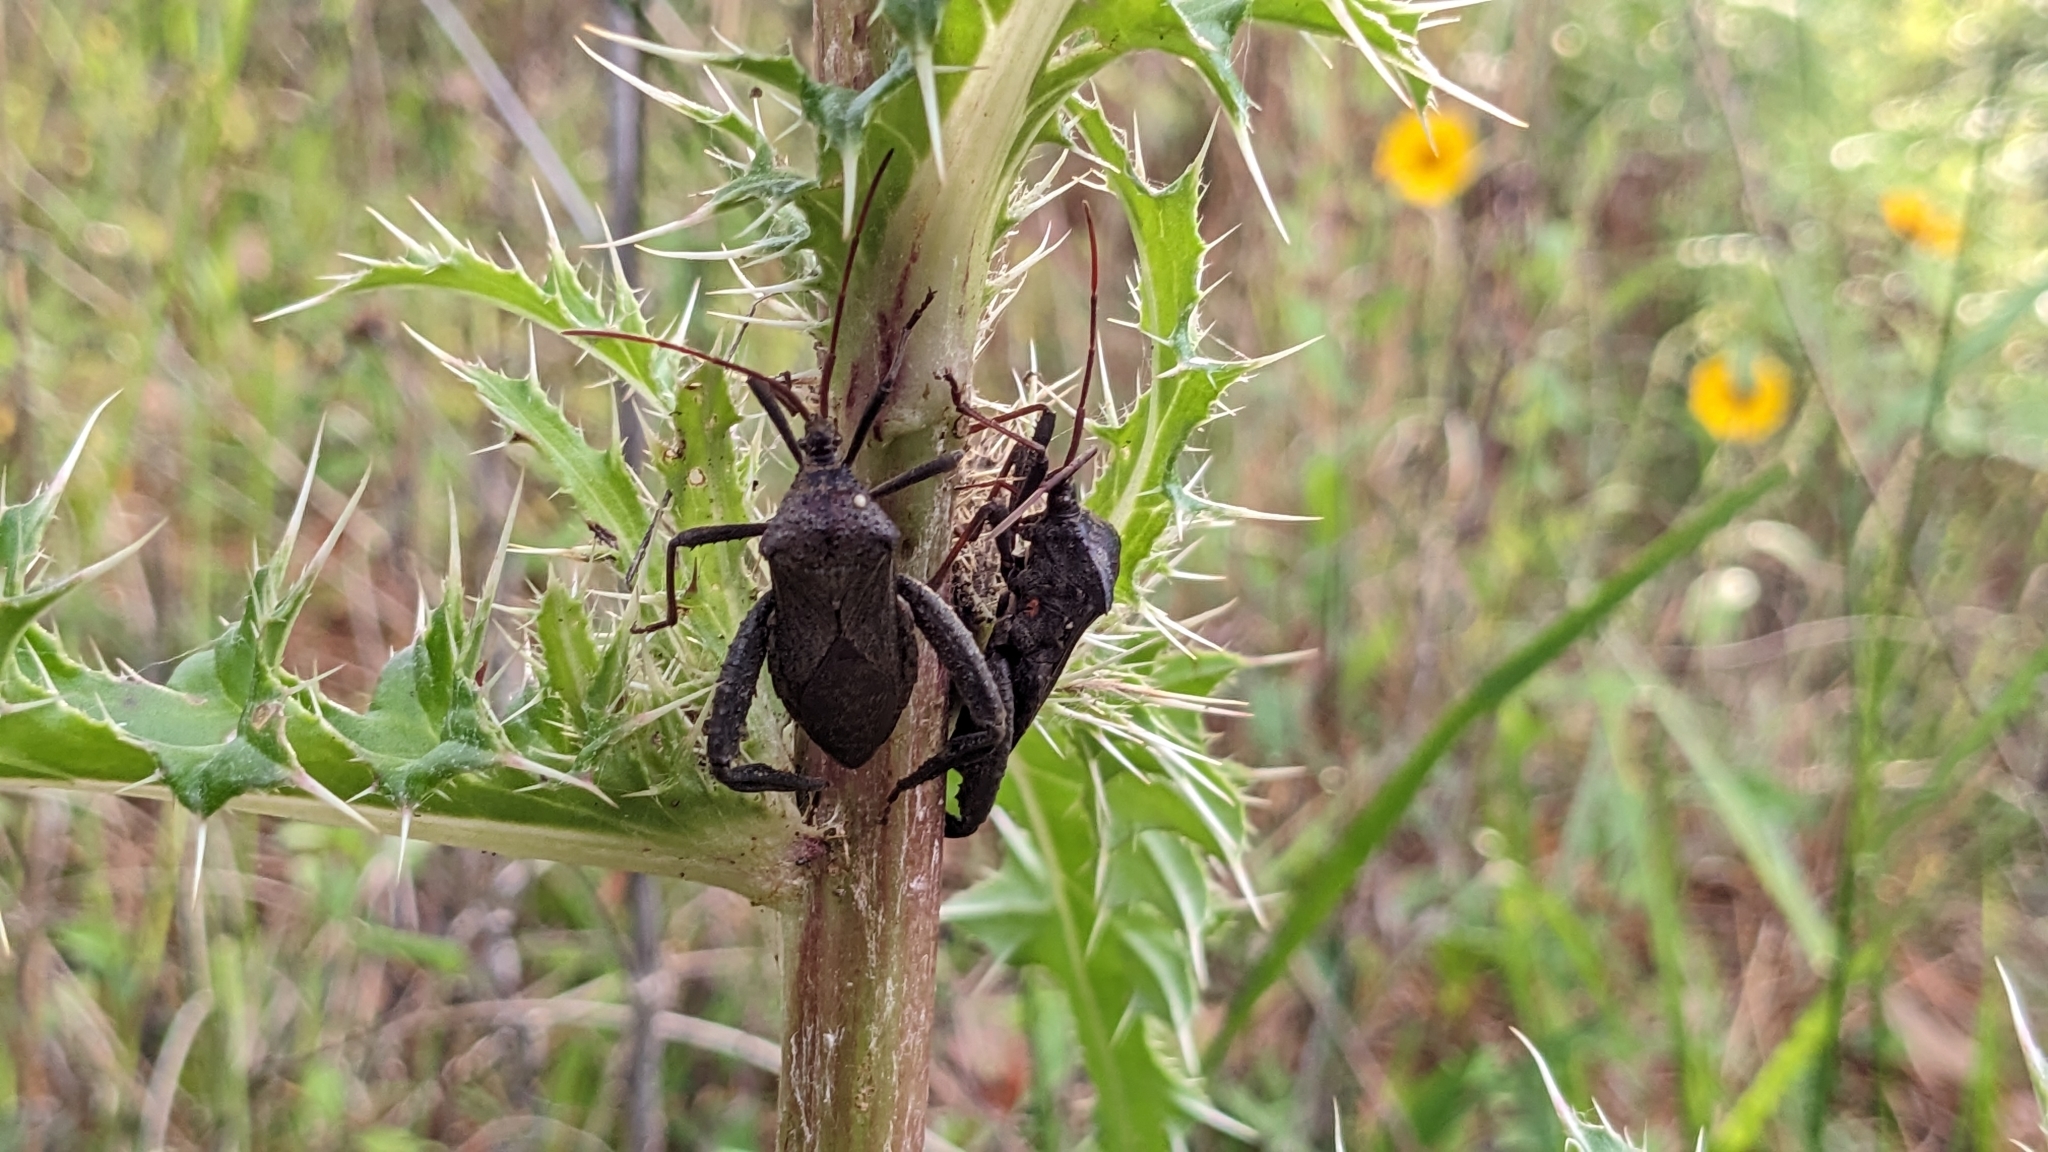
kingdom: Animalia
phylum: Arthropoda
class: Insecta
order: Hemiptera
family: Coreidae
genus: Acanthocephala
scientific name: Acanthocephala femorata
